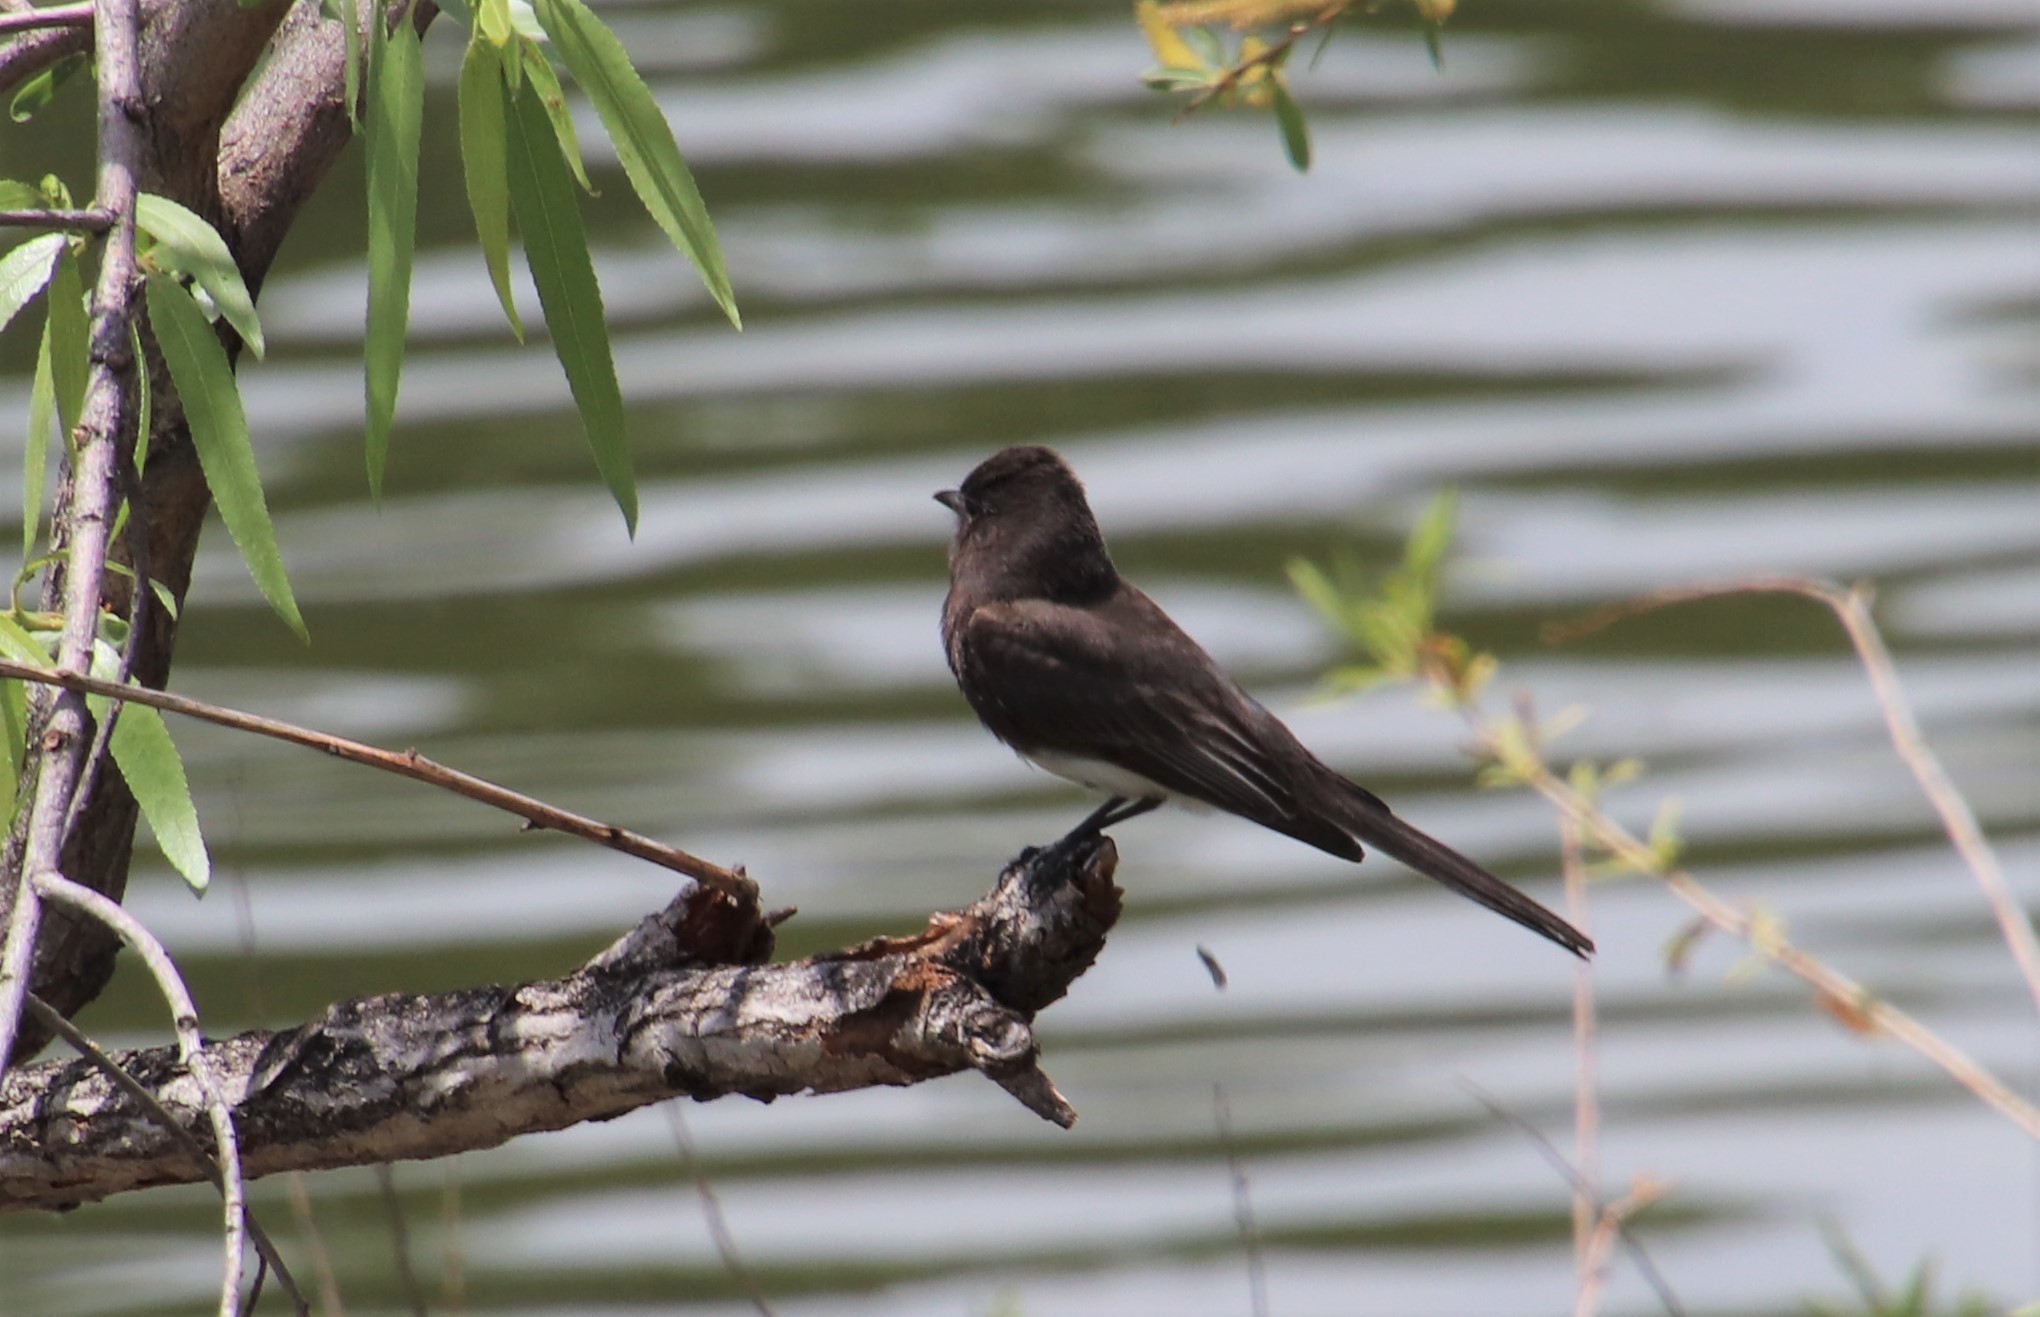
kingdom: Animalia
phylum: Chordata
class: Aves
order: Passeriformes
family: Tyrannidae
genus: Sayornis
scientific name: Sayornis nigricans
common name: Black phoebe
